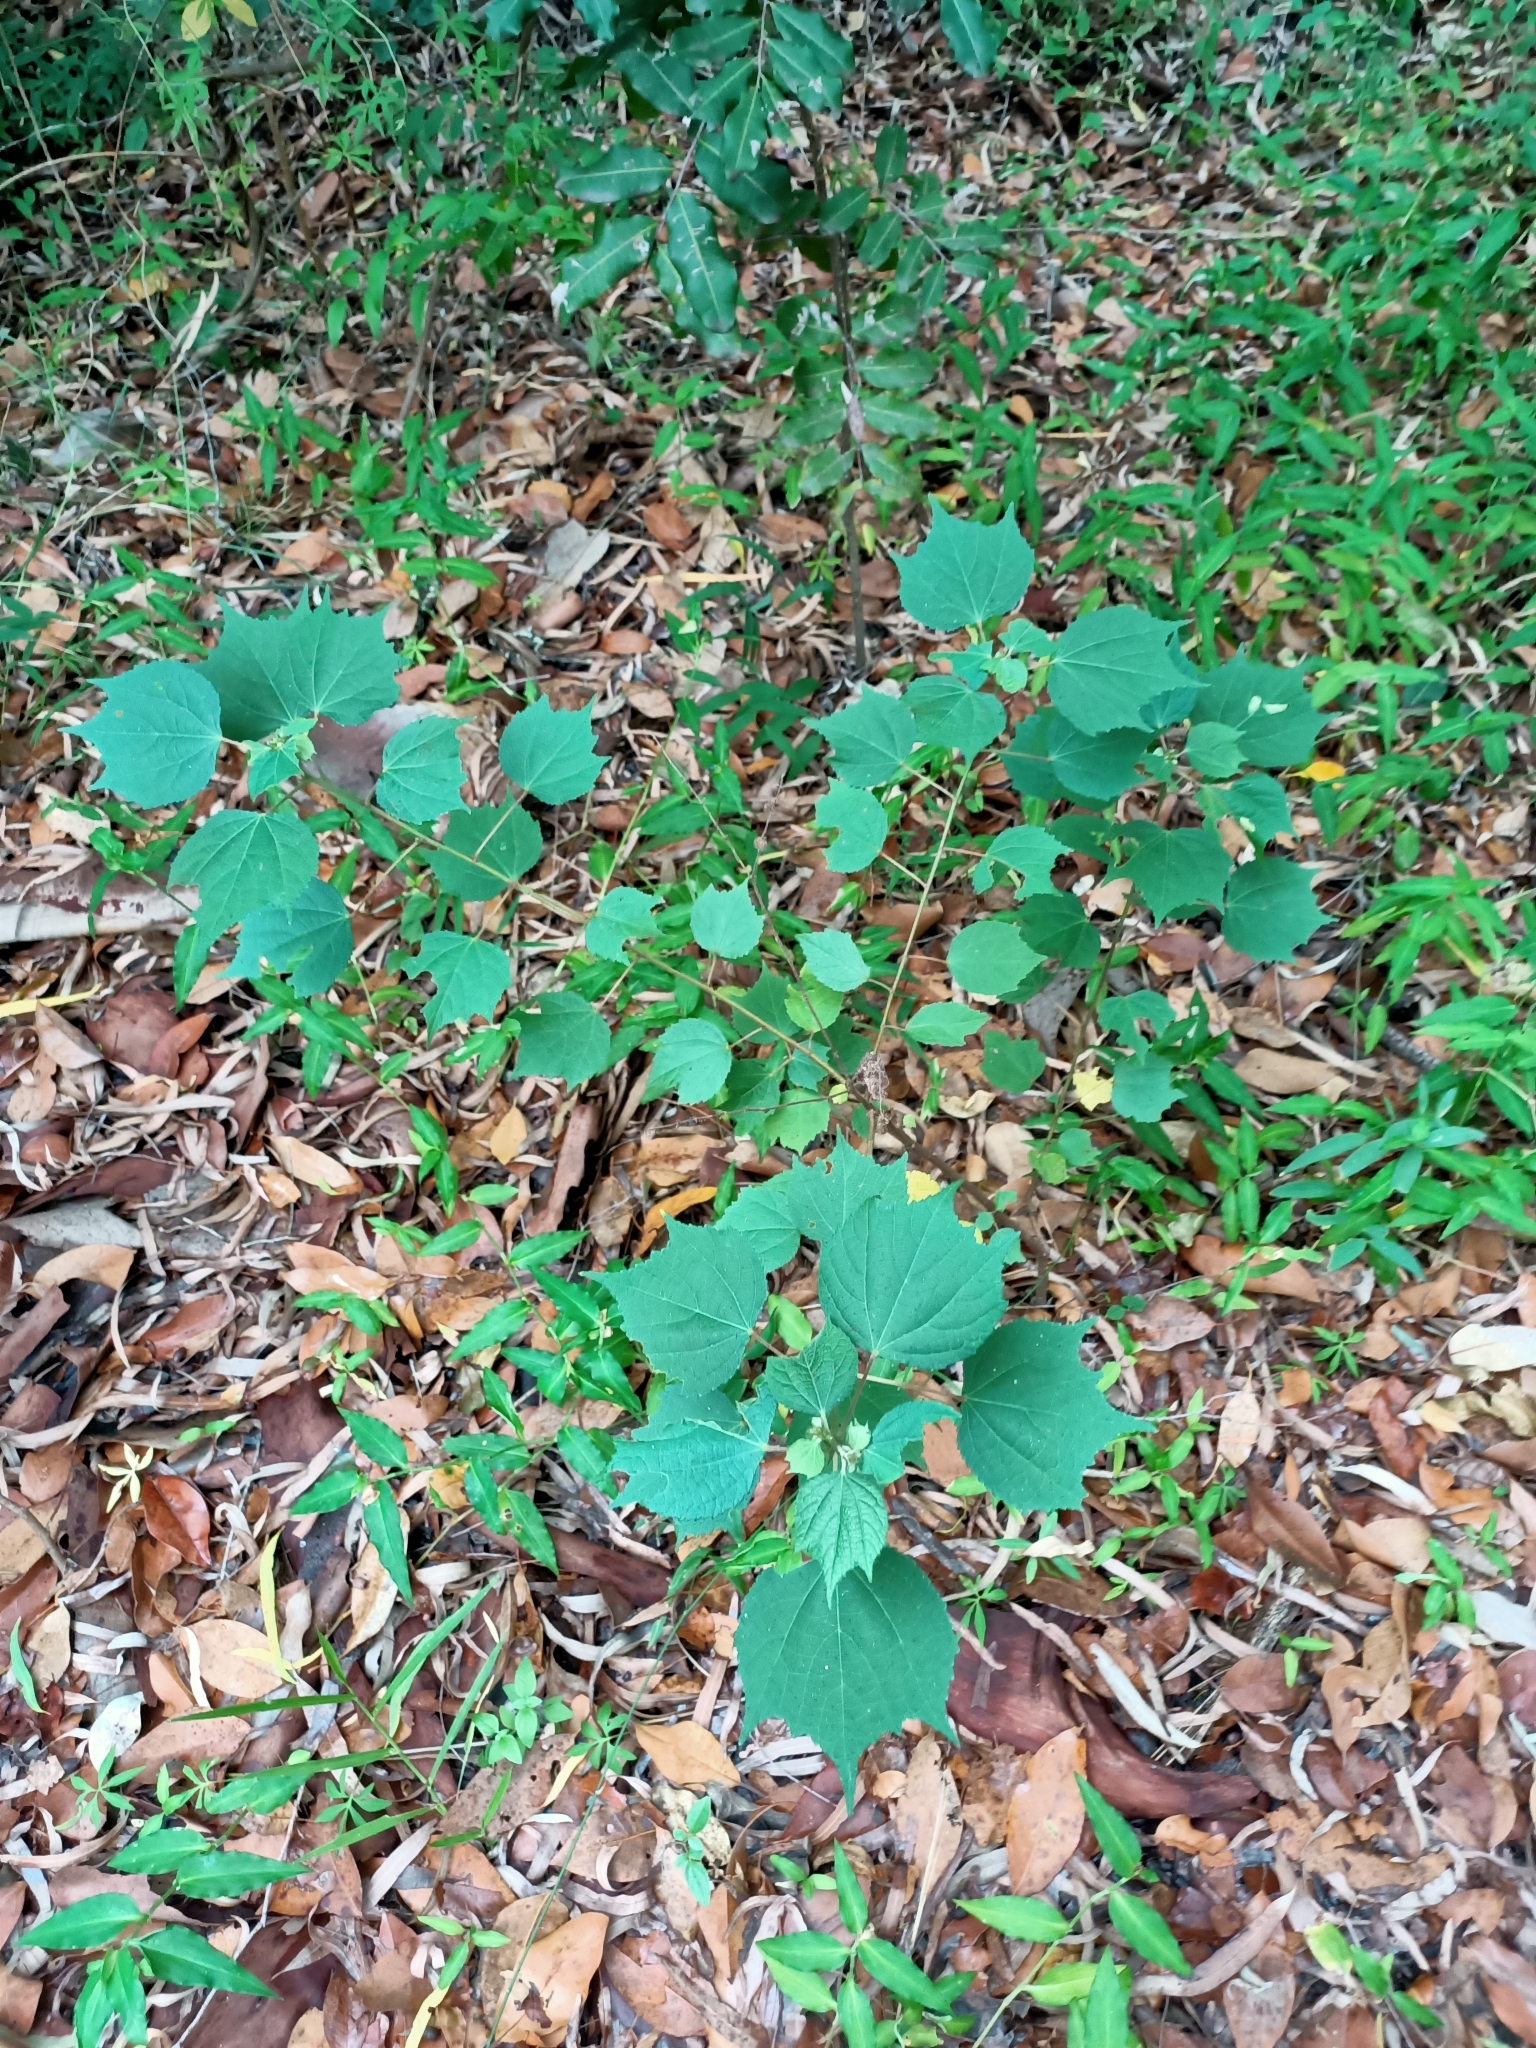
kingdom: Plantae
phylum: Tracheophyta
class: Magnoliopsida
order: Malvales
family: Malvaceae
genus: Urena
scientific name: Urena lobata
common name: Caesarweed
